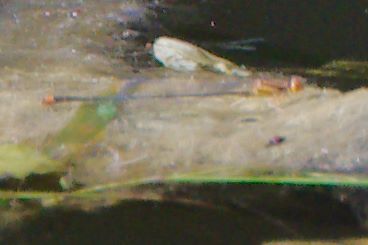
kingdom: Animalia
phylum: Arthropoda
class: Insecta
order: Odonata
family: Coenagrionidae
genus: Enallagma
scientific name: Enallagma pollutum
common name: Florida bluet
